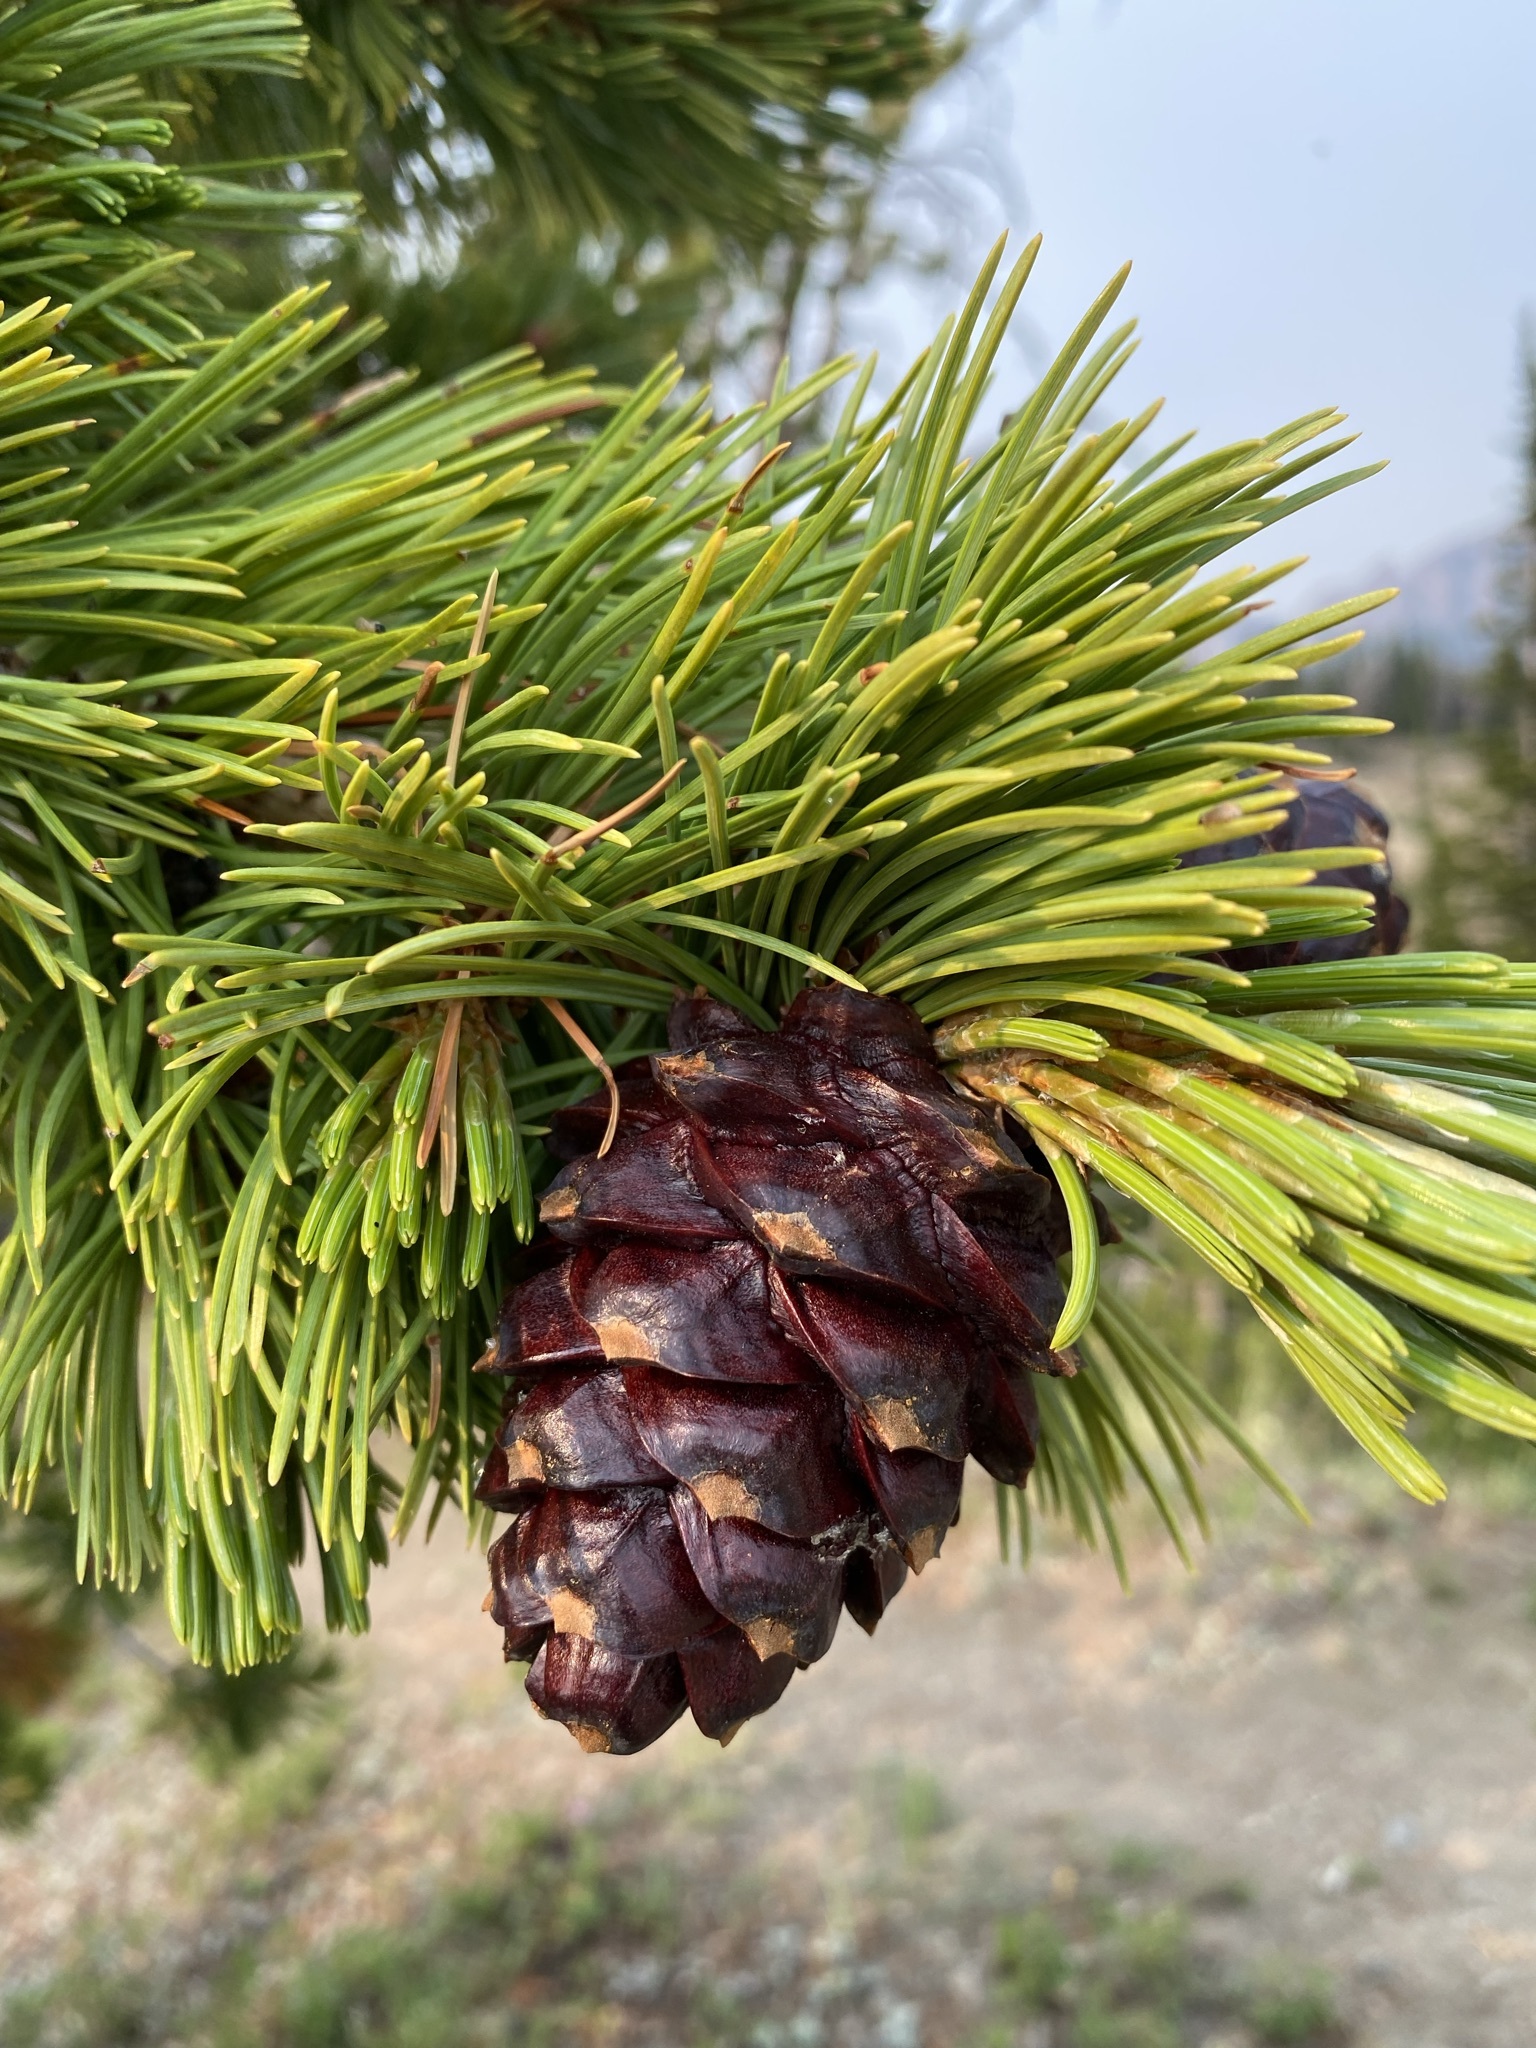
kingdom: Plantae
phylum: Tracheophyta
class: Pinopsida
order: Pinales
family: Pinaceae
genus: Pinus
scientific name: Pinus albicaulis
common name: Whitebark pine
